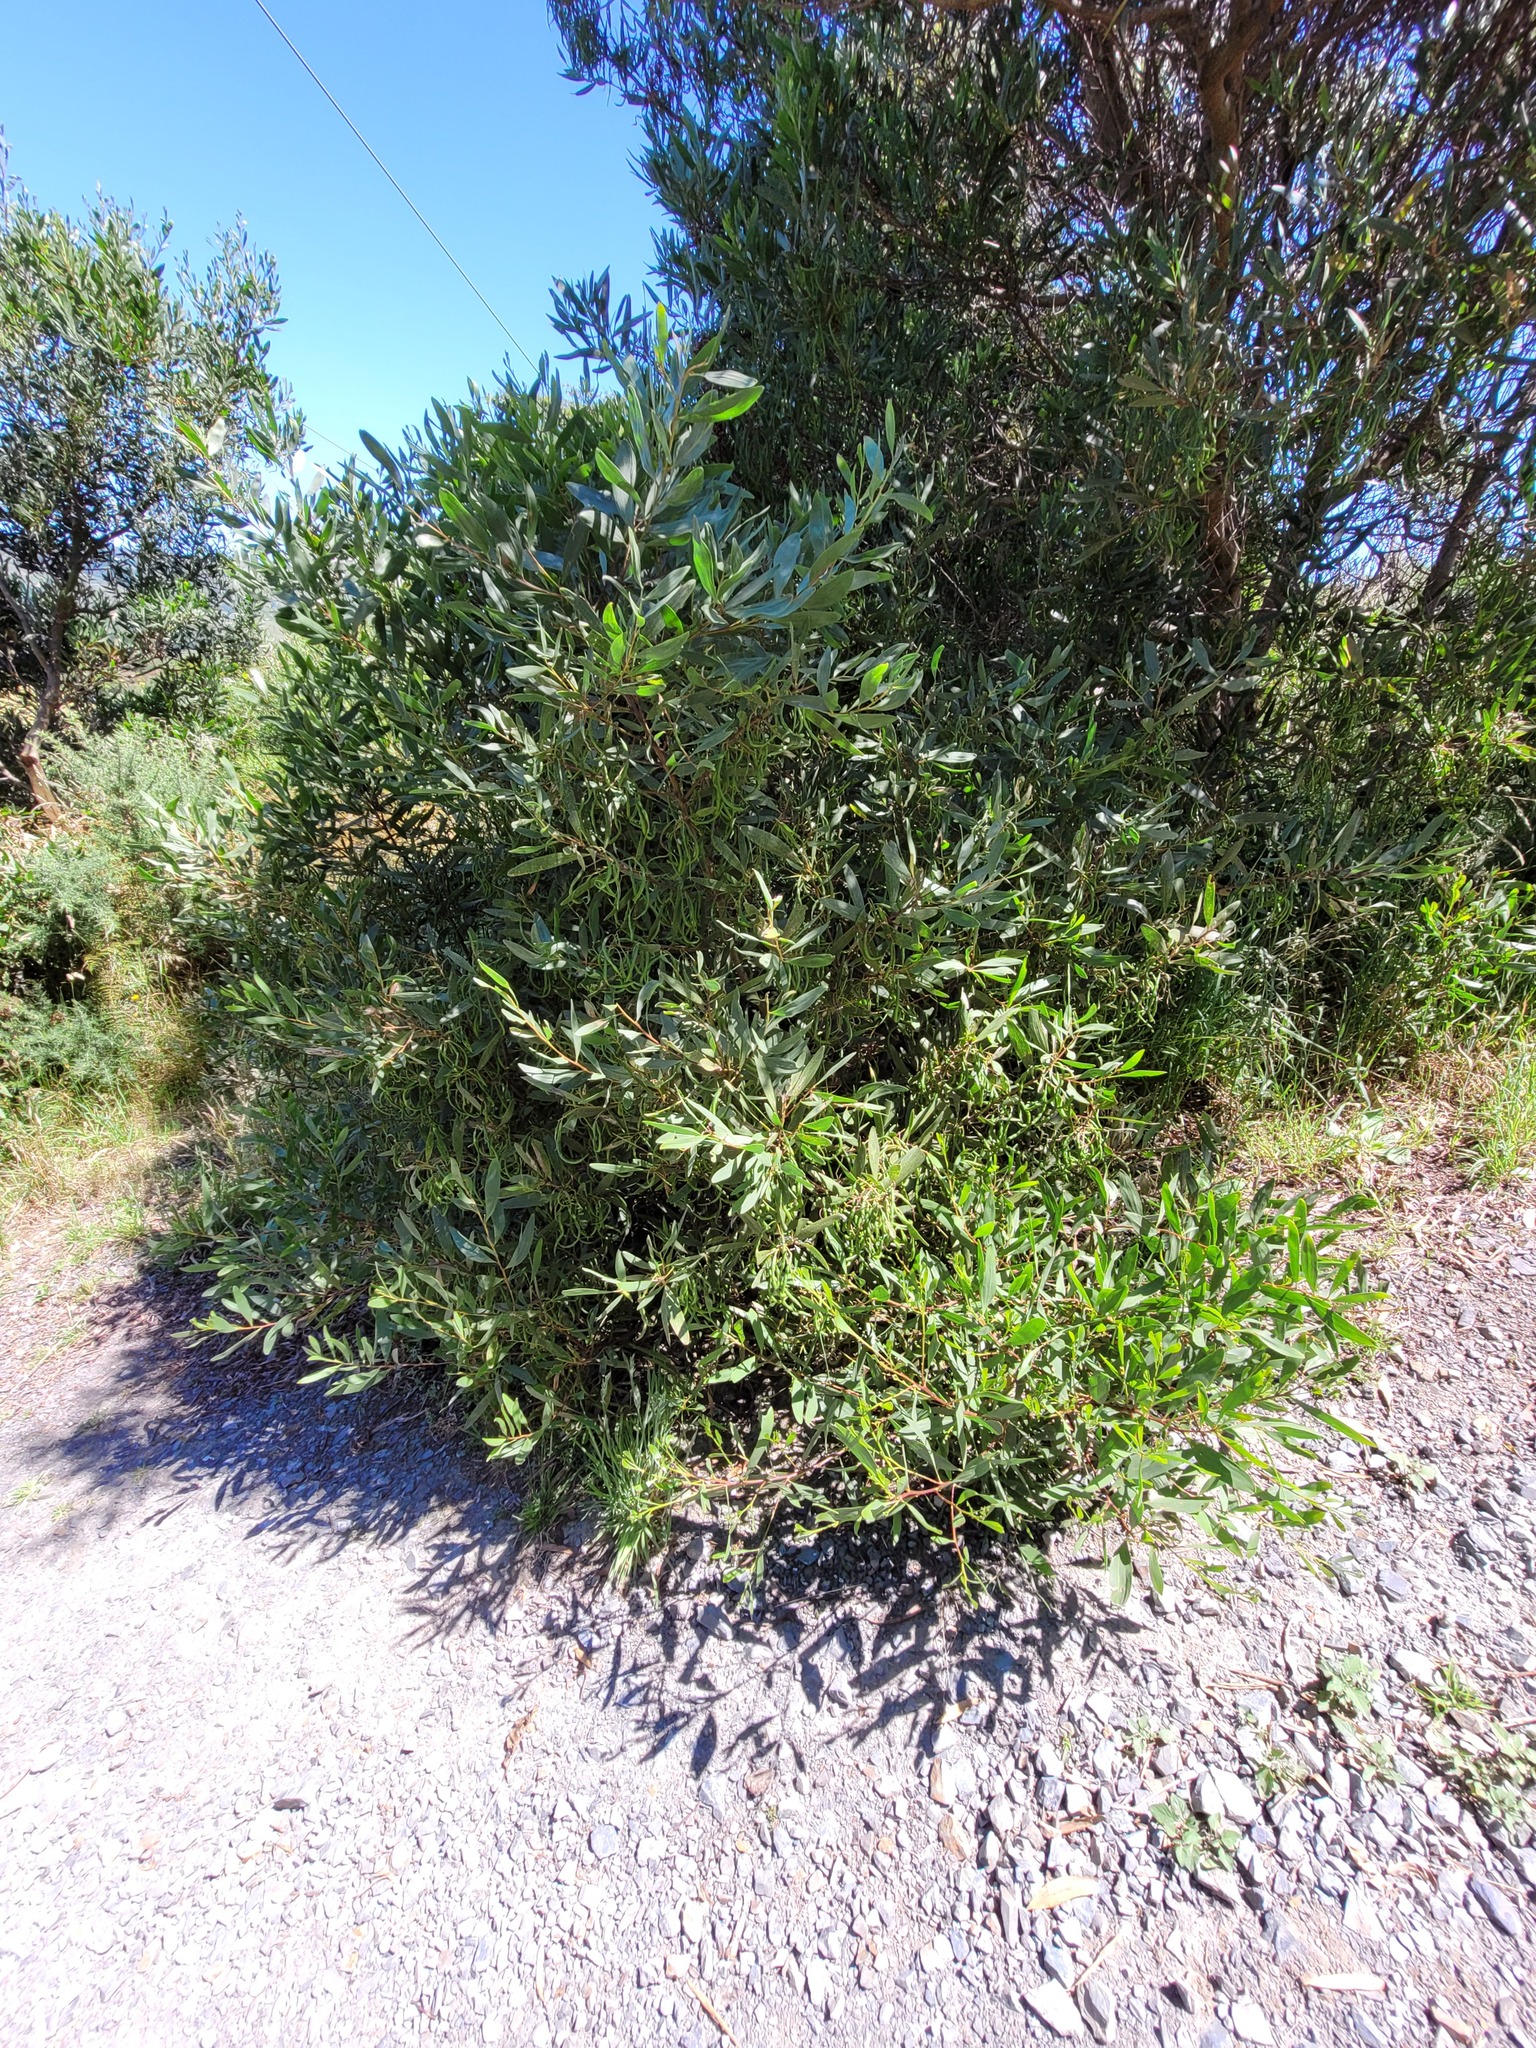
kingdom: Plantae
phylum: Tracheophyta
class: Magnoliopsida
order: Fabales
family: Fabaceae
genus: Acacia
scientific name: Acacia longifolia
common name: Sydney golden wattle
